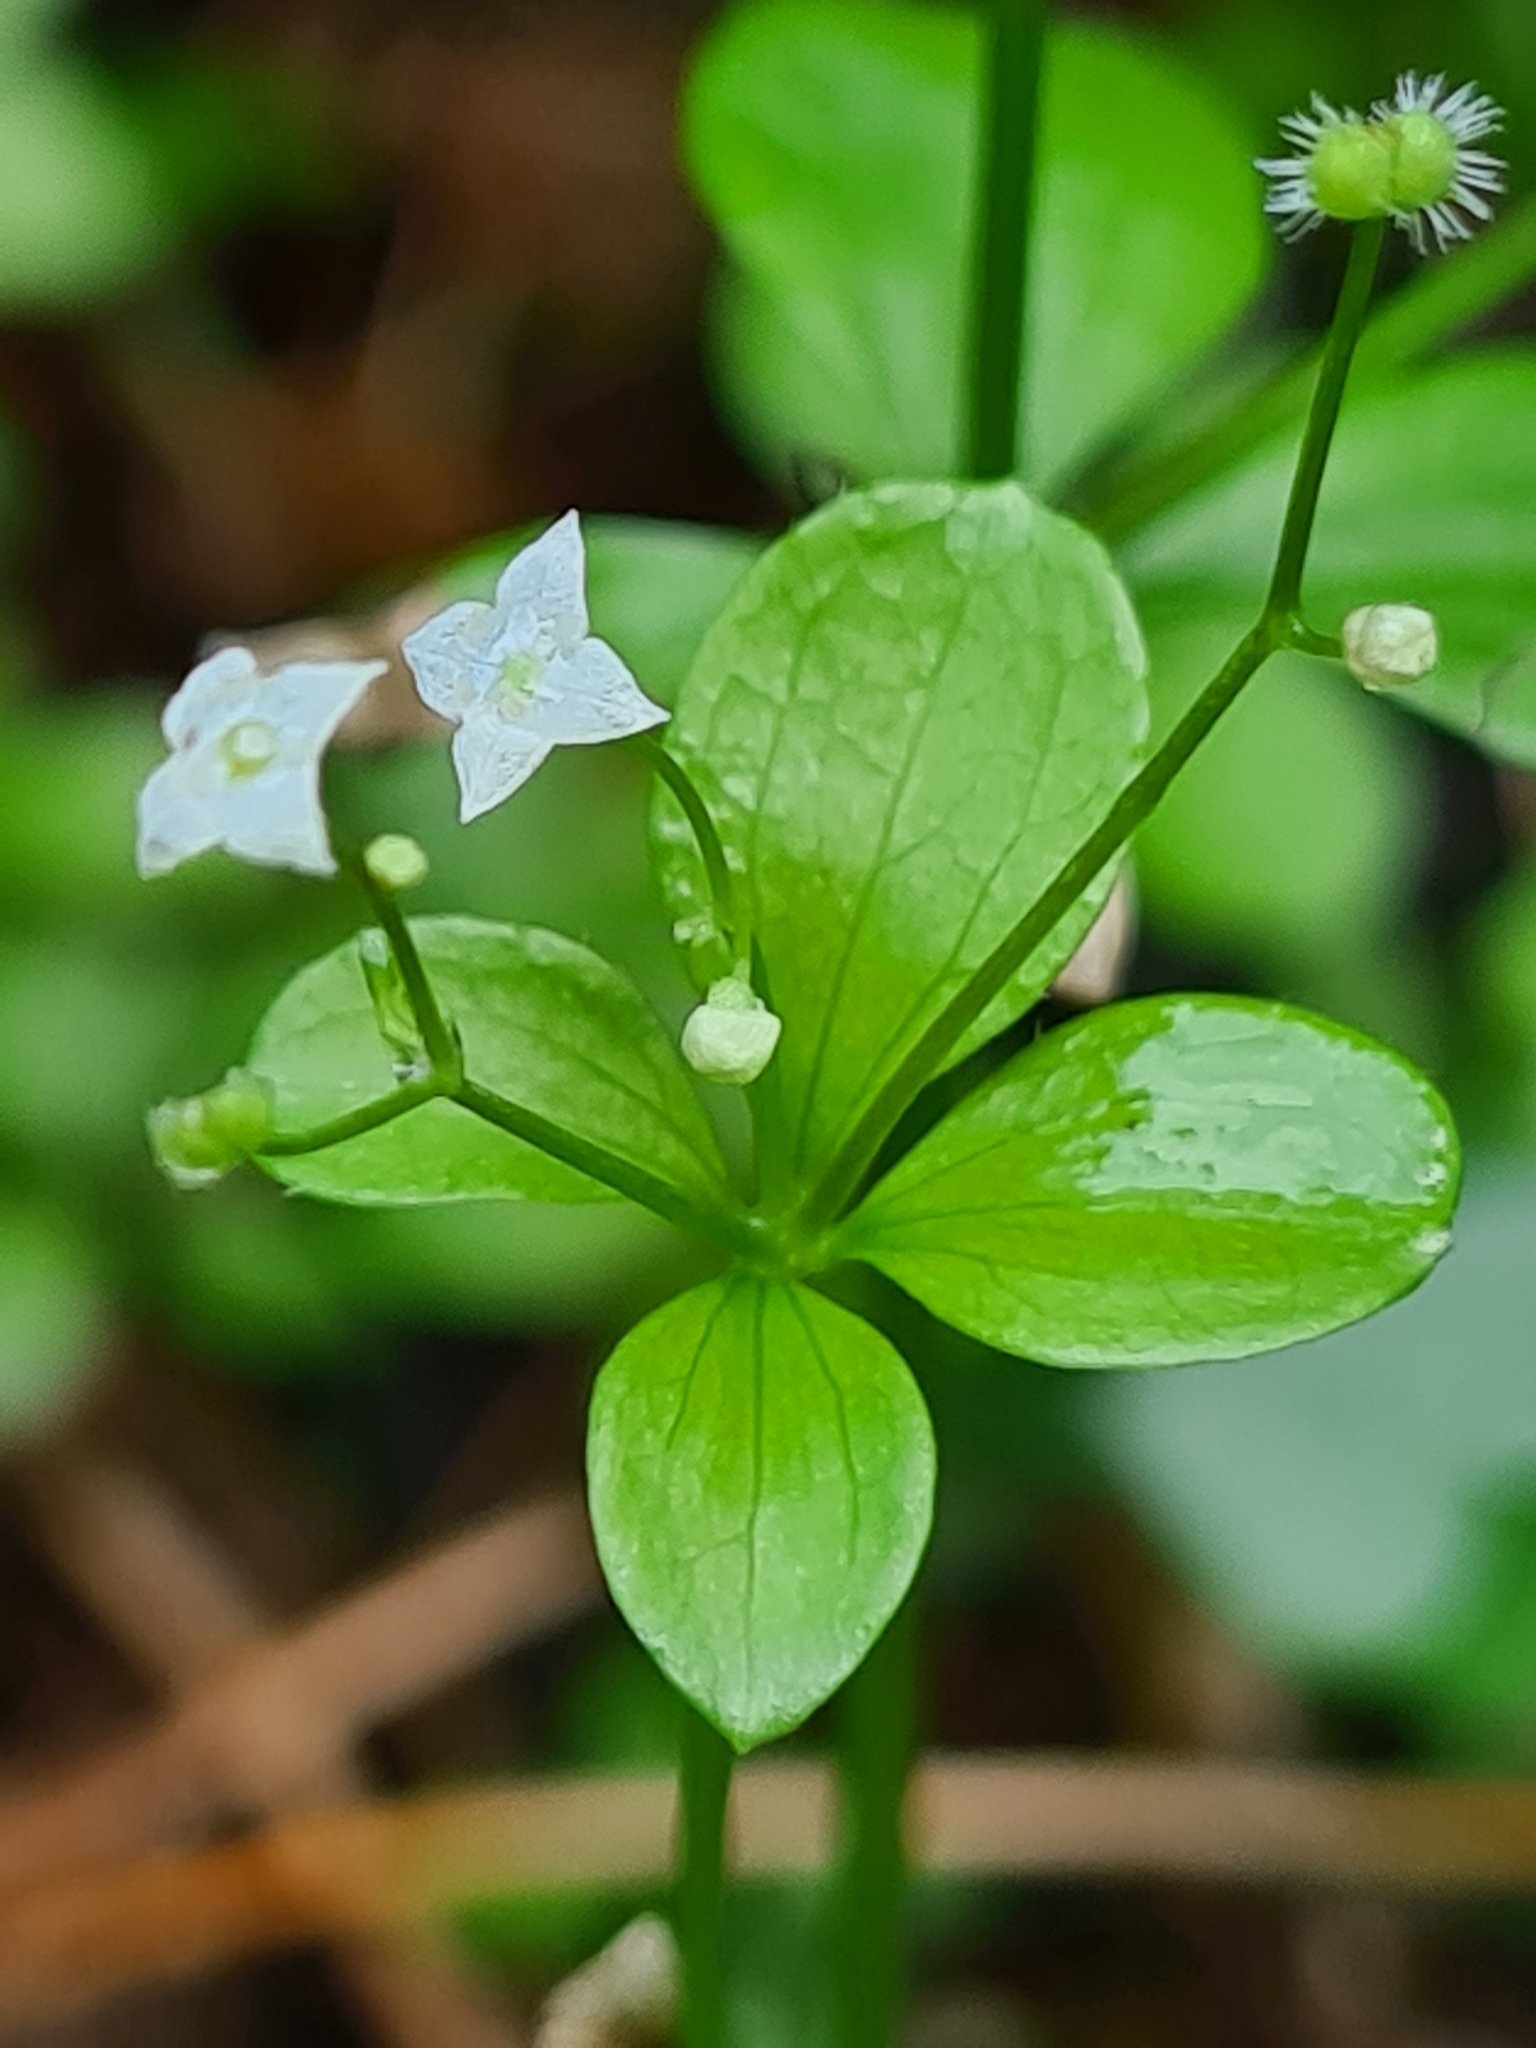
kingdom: Plantae
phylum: Tracheophyta
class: Magnoliopsida
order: Gentianales
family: Rubiaceae
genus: Galium
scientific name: Galium rotundifolium
